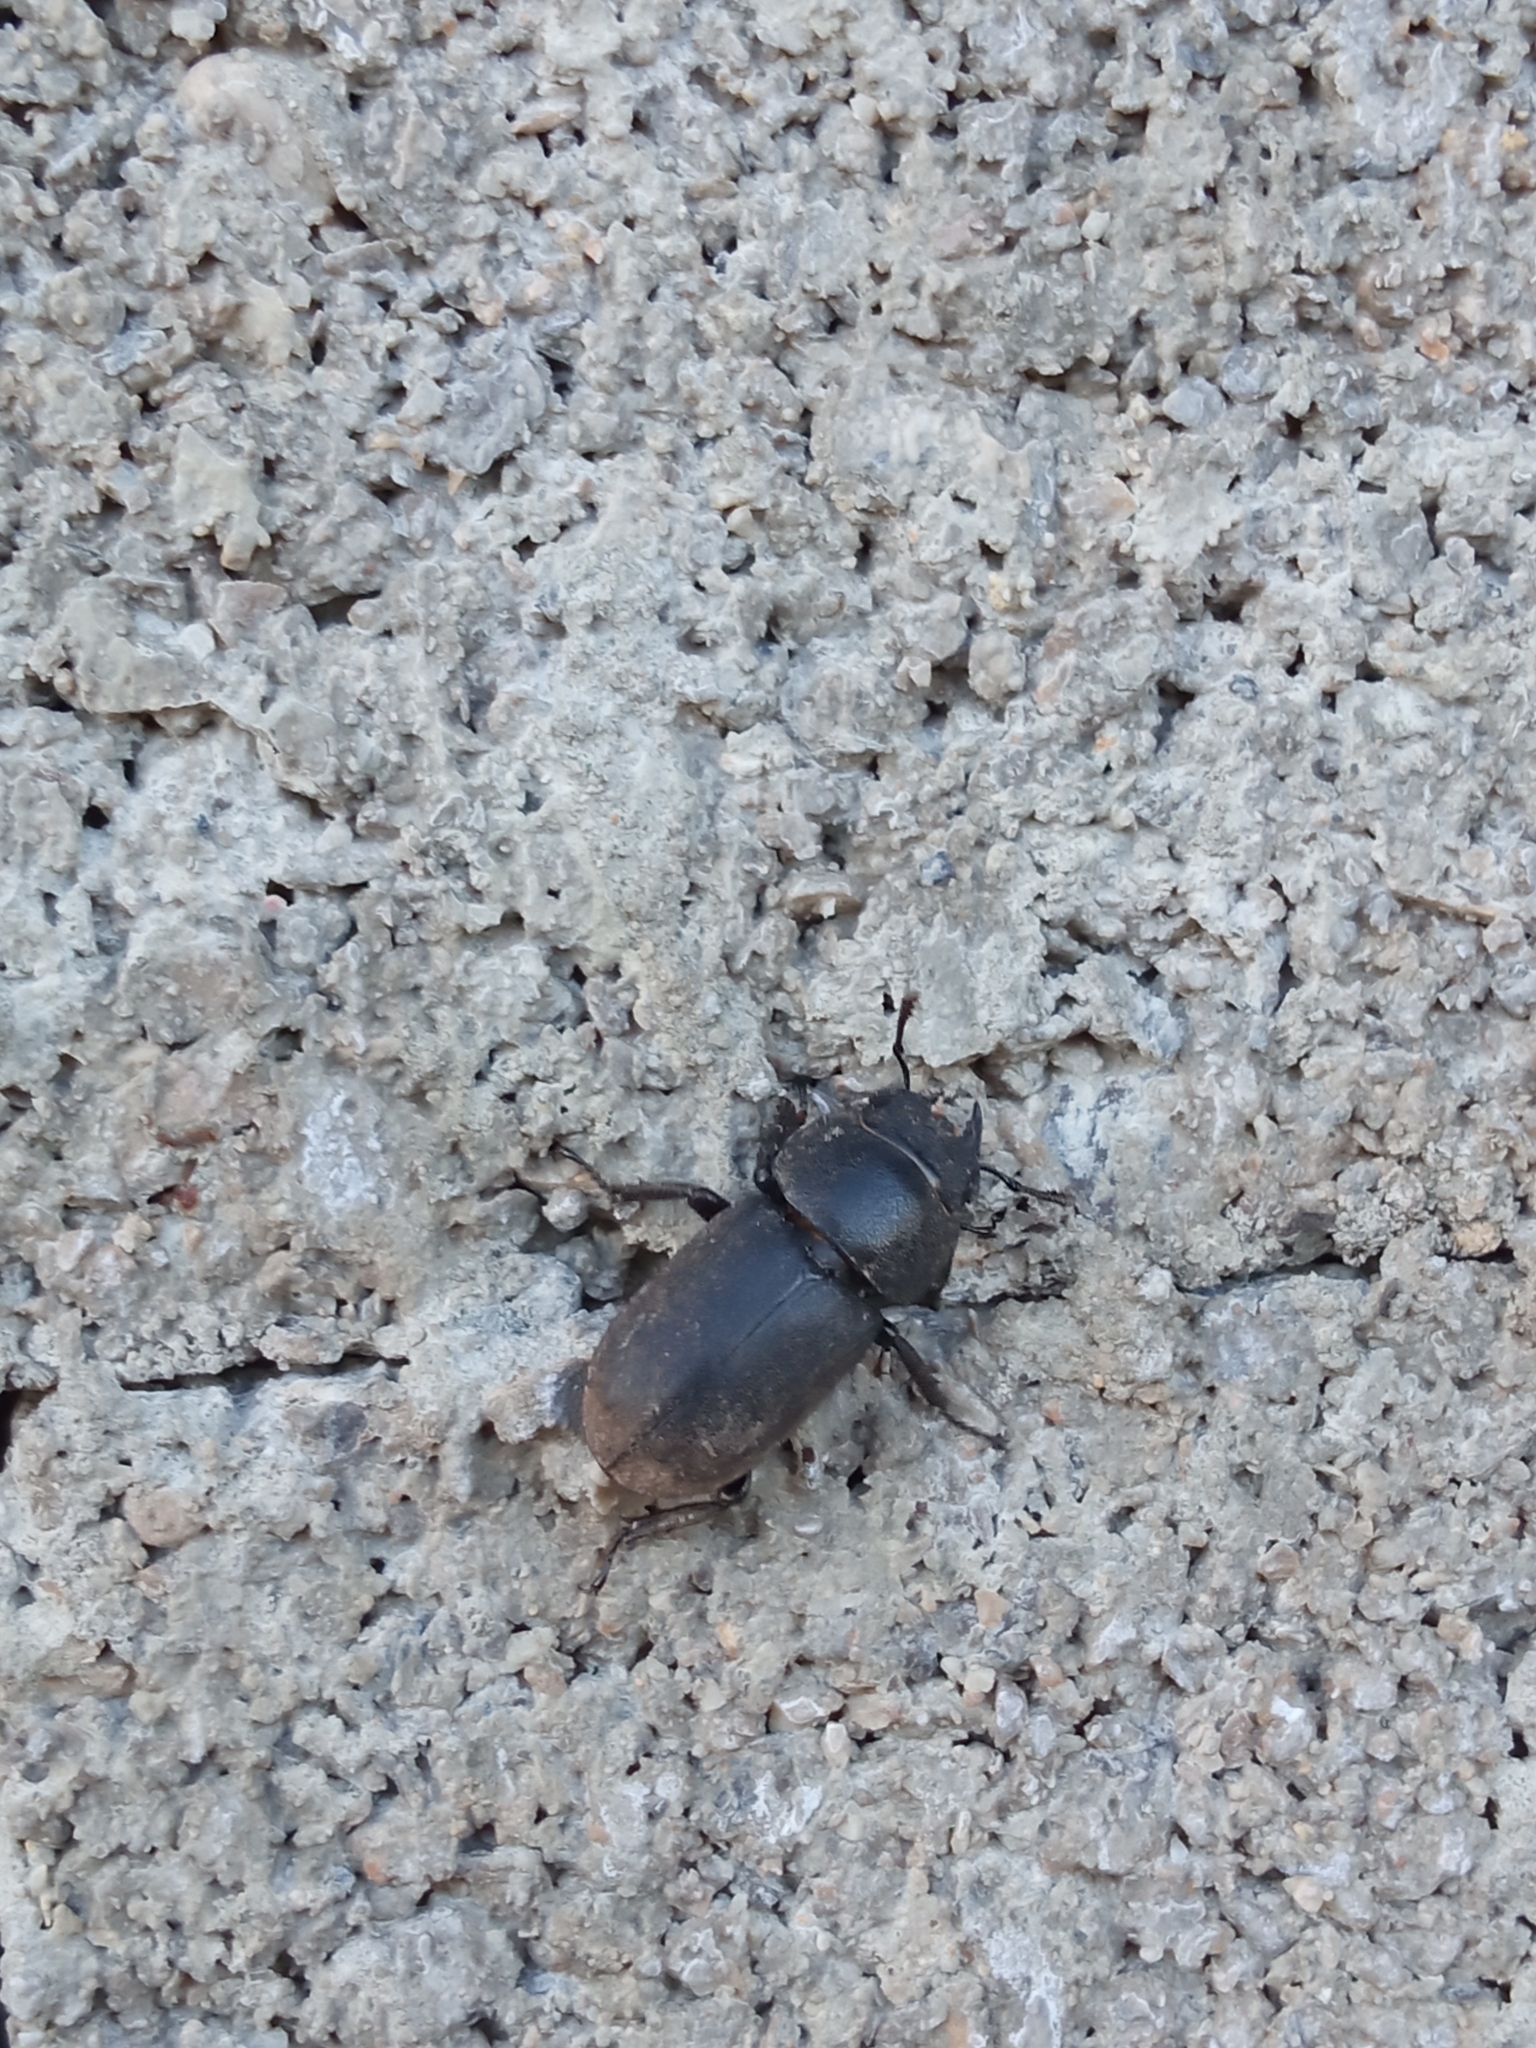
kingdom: Animalia
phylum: Arthropoda
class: Insecta
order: Coleoptera
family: Lucanidae
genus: Dorcus
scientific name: Dorcus parallelipipedus
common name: Lesser stag beetle
